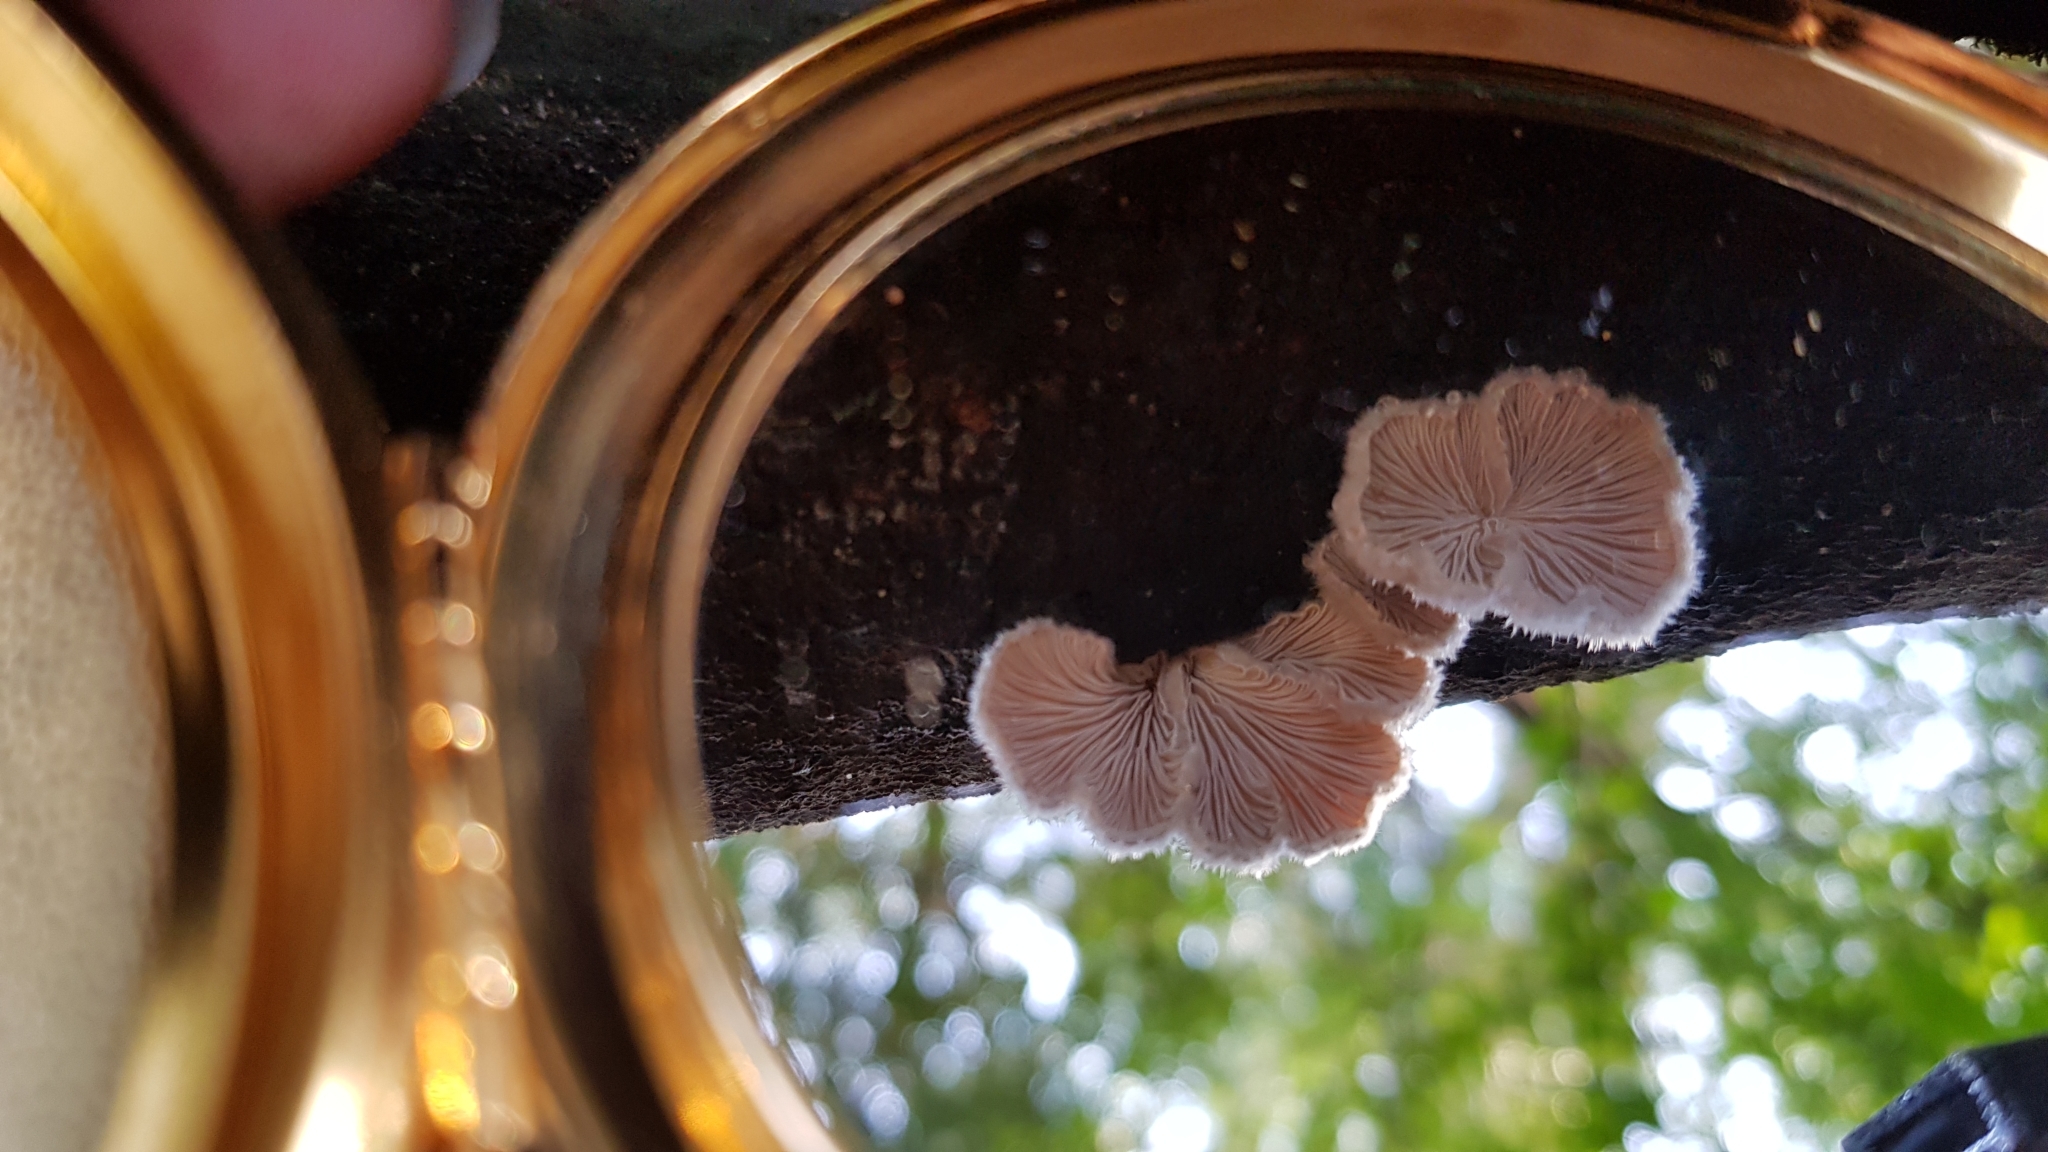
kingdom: Fungi
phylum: Basidiomycota
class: Agaricomycetes
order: Agaricales
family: Schizophyllaceae
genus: Schizophyllum
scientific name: Schizophyllum commune
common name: Common porecrust
